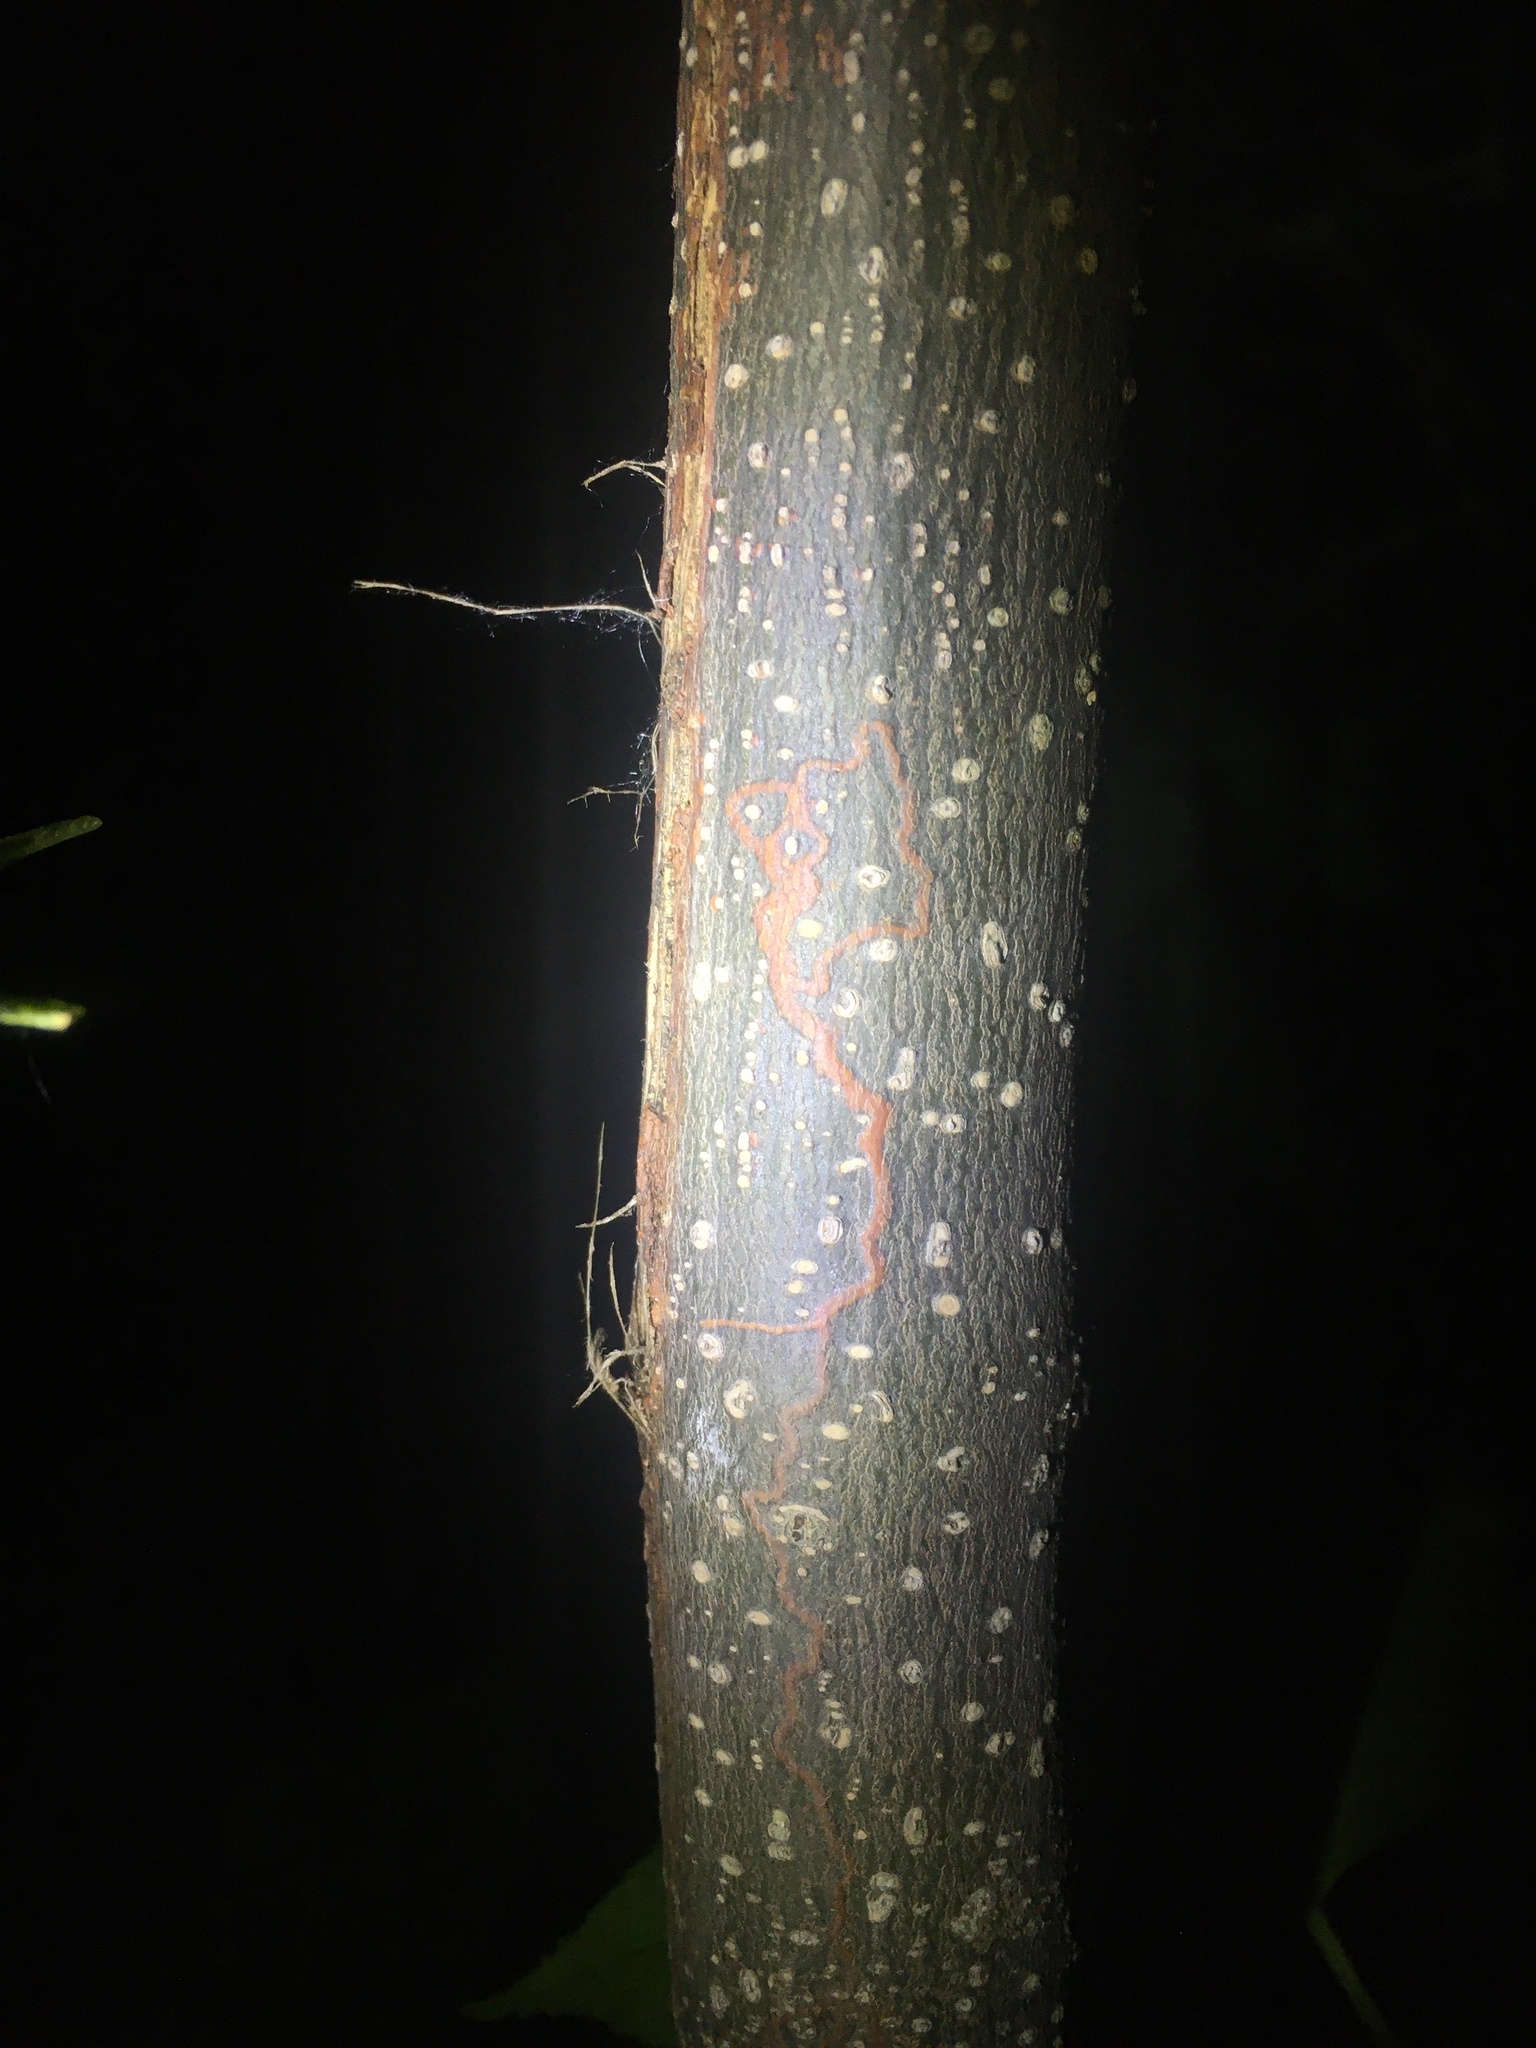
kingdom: Animalia
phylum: Arthropoda
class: Insecta
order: Lepidoptera
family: Gracillariidae
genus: Marmara
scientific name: Marmara fraxinicola
